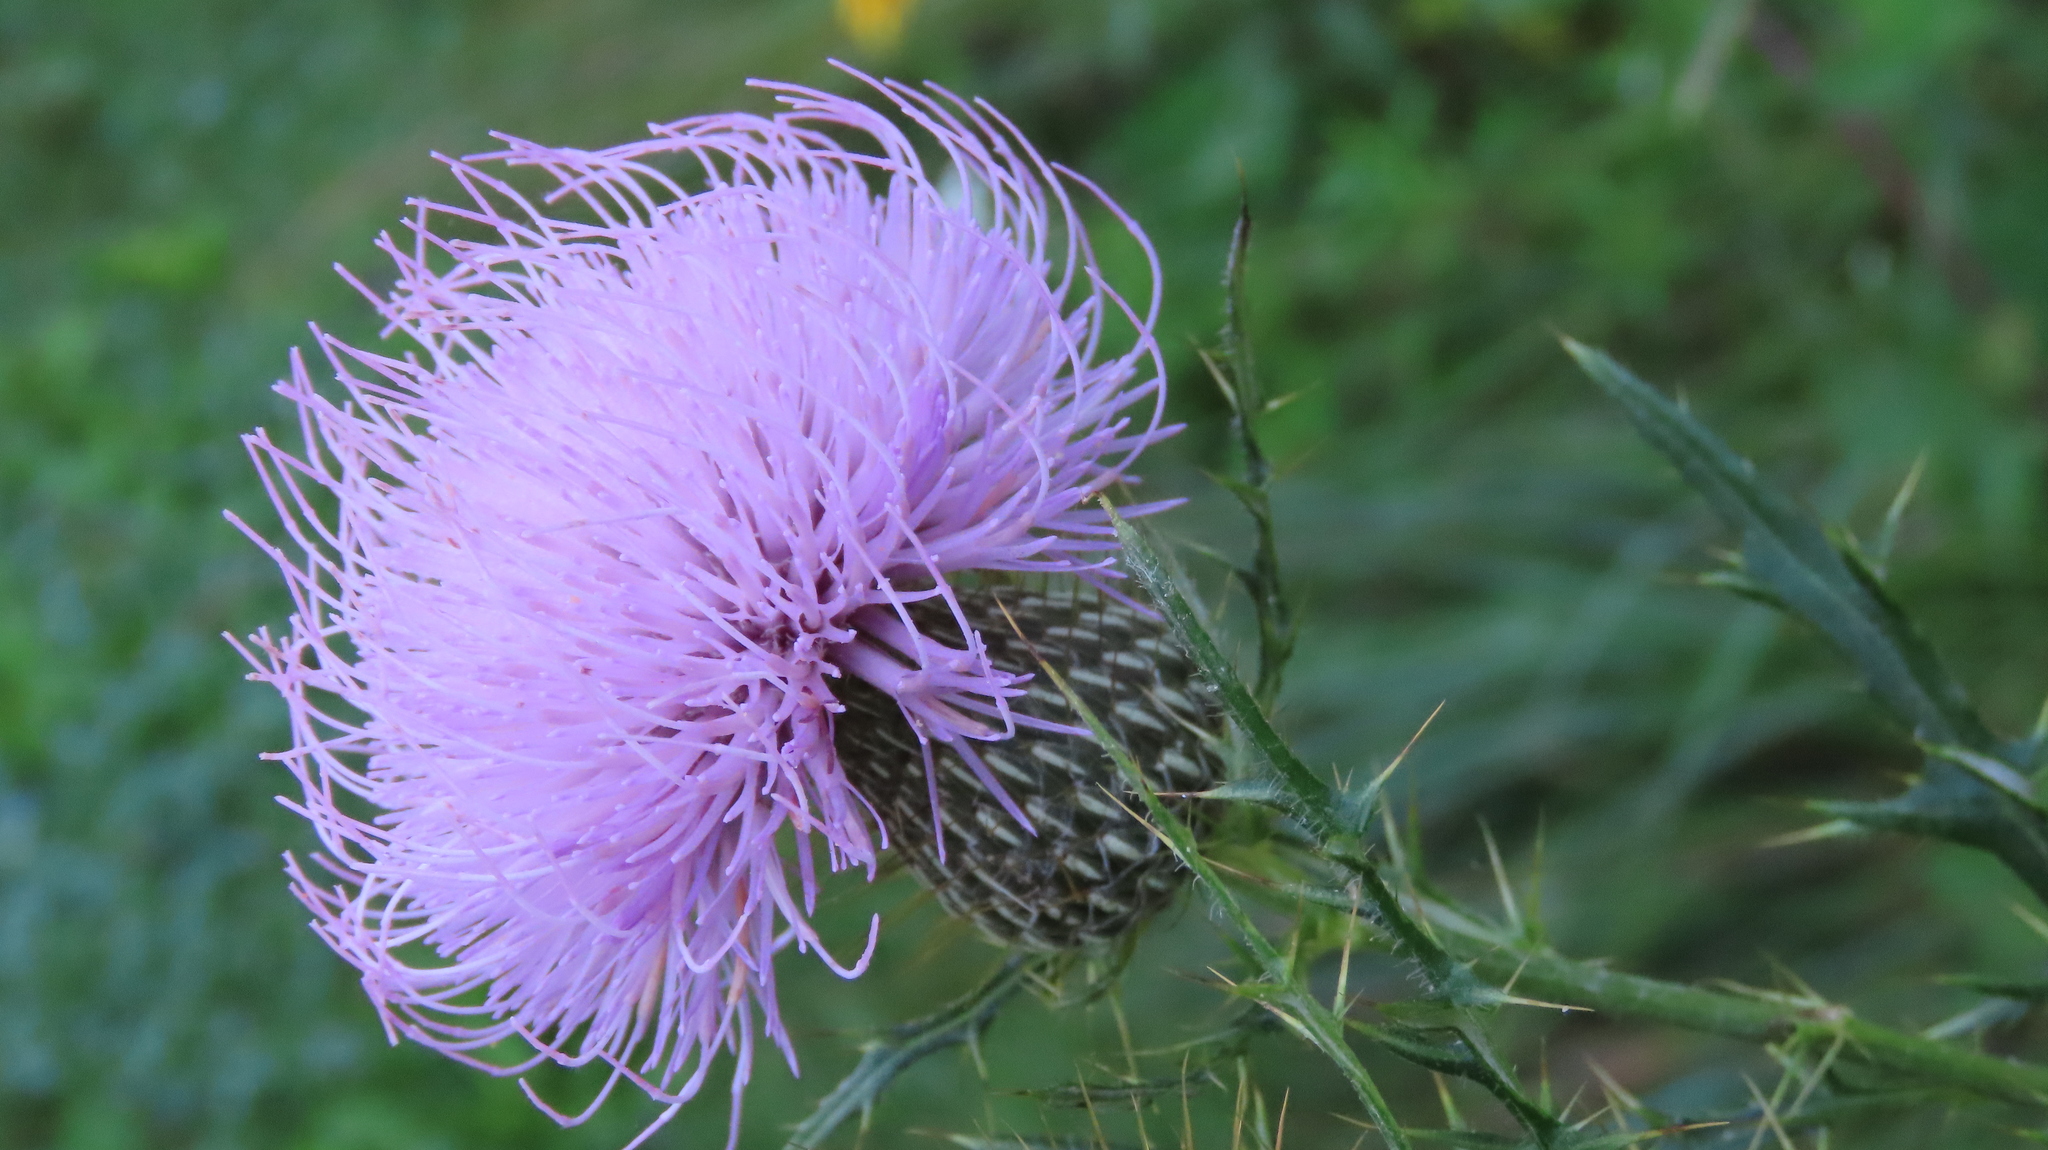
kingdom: Plantae
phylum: Tracheophyta
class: Magnoliopsida
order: Asterales
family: Asteraceae
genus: Cirsium
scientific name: Cirsium discolor
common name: Field thistle
